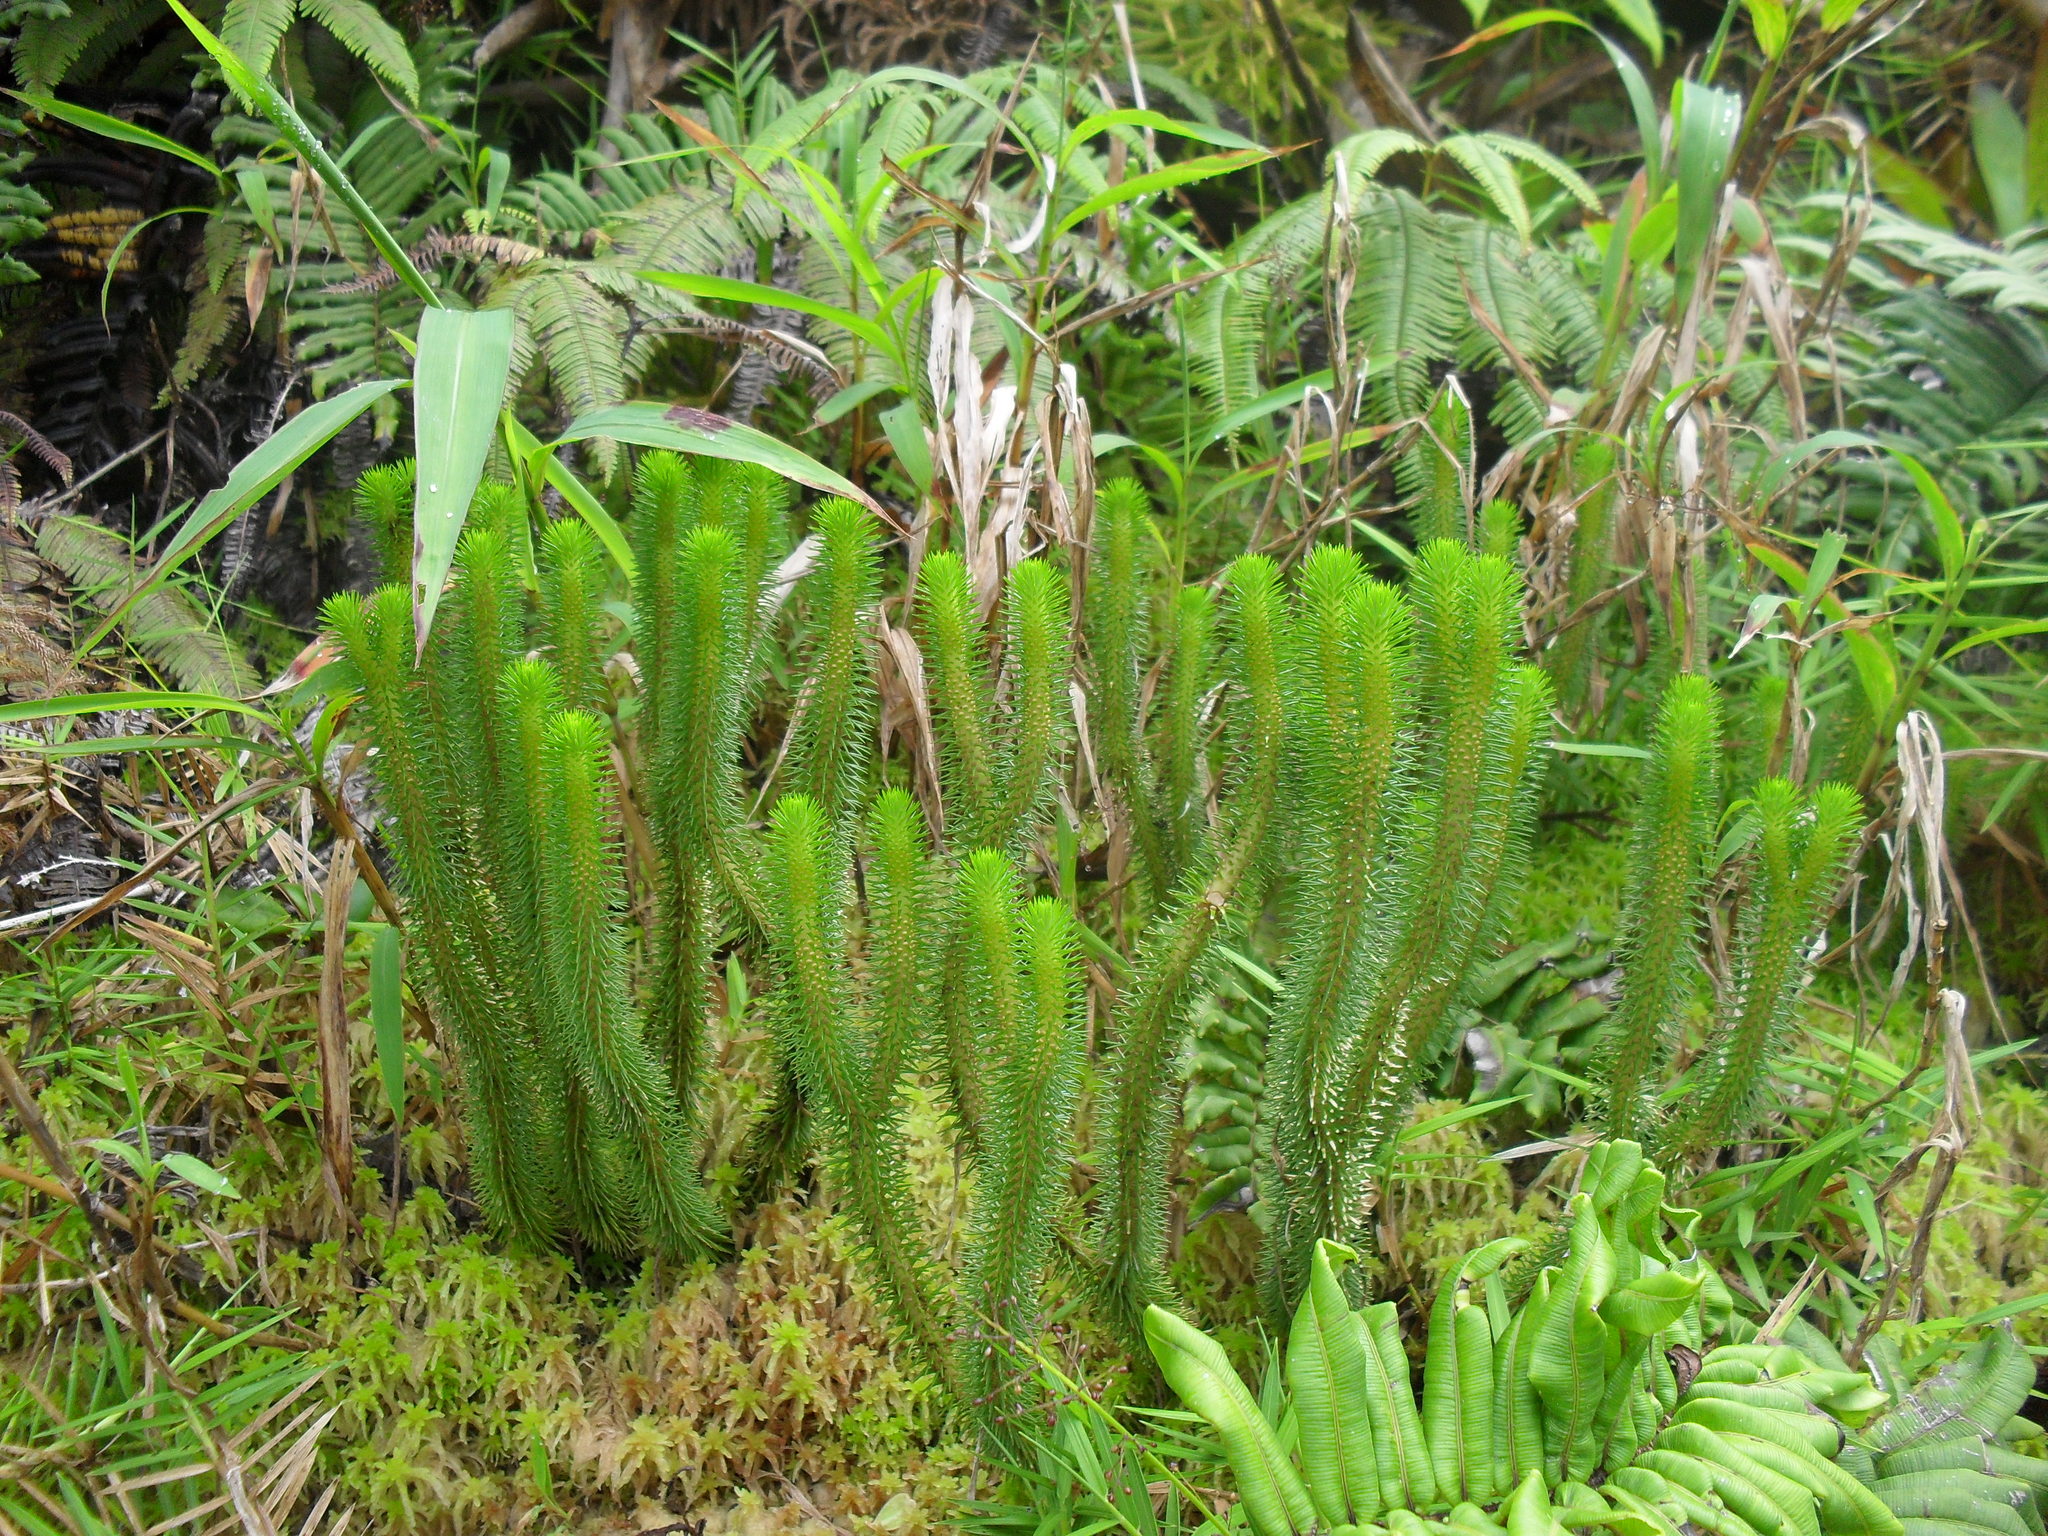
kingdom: Plantae
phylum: Tracheophyta
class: Lycopodiopsida
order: Lycopodiales
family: Lycopodiaceae
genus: Phlegmariurus
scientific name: Phlegmariurus sieberianus
